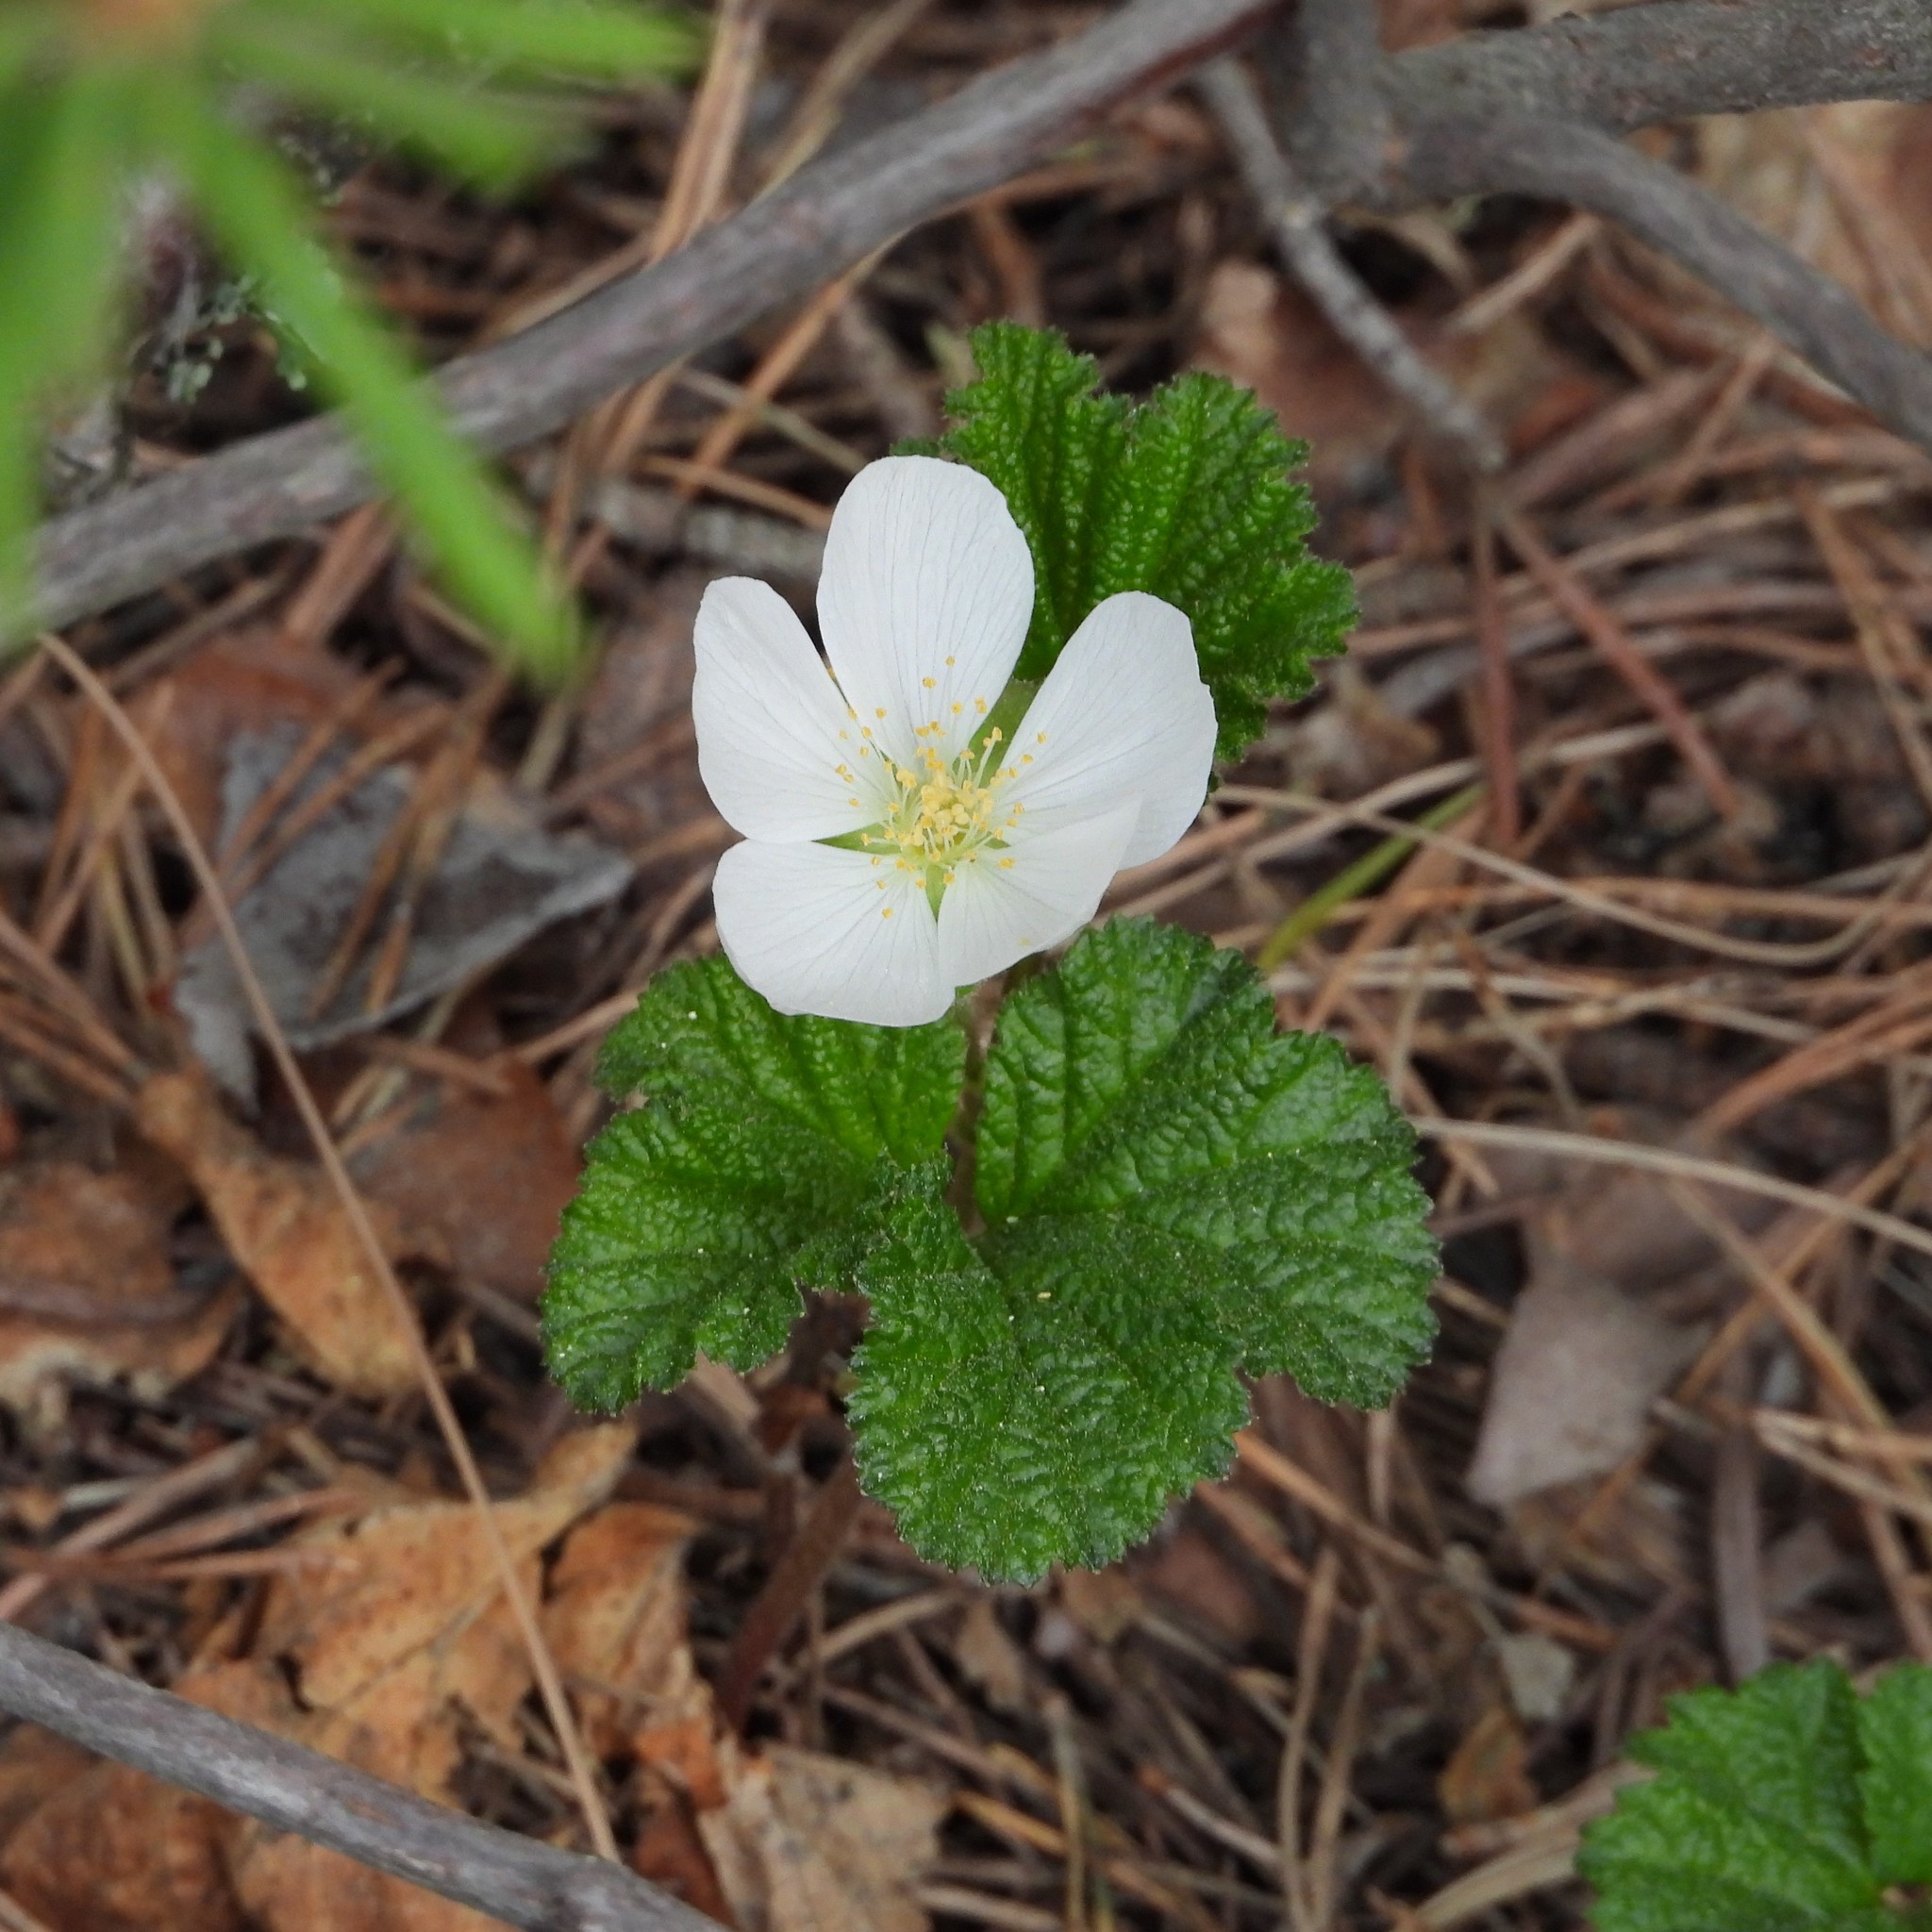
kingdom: Plantae
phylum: Tracheophyta
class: Magnoliopsida
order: Rosales
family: Rosaceae
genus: Rubus
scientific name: Rubus chamaemorus
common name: Cloudberry
